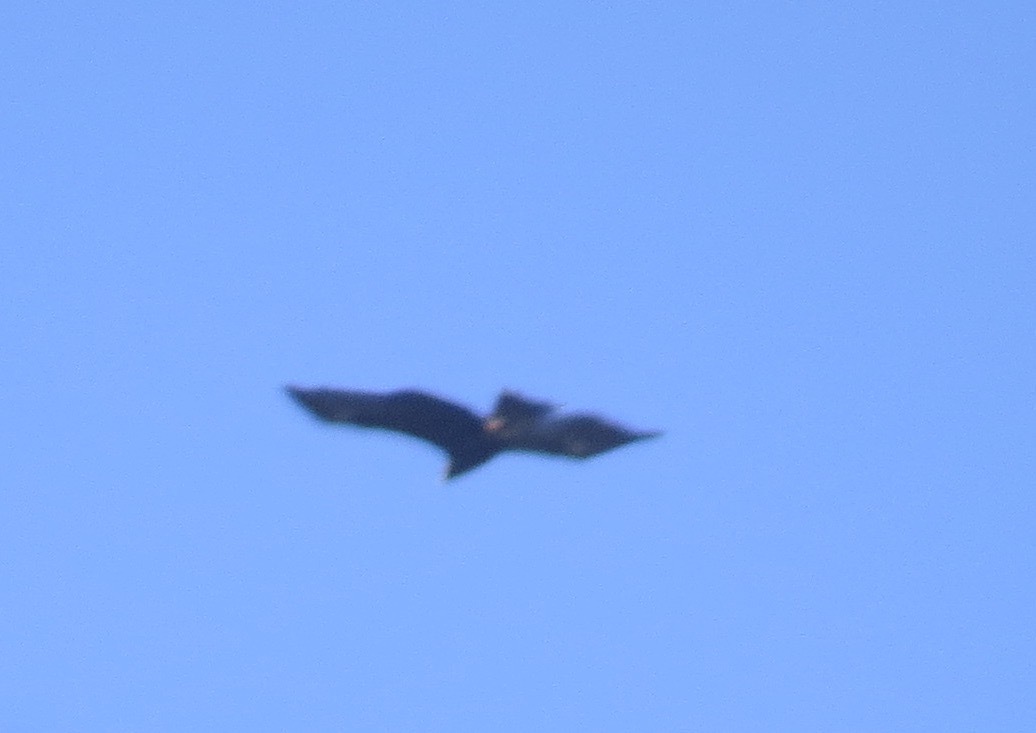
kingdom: Animalia
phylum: Chordata
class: Aves
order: Accipitriformes
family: Accipitridae
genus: Aquila
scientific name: Aquila chrysaetos
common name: Golden eagle
